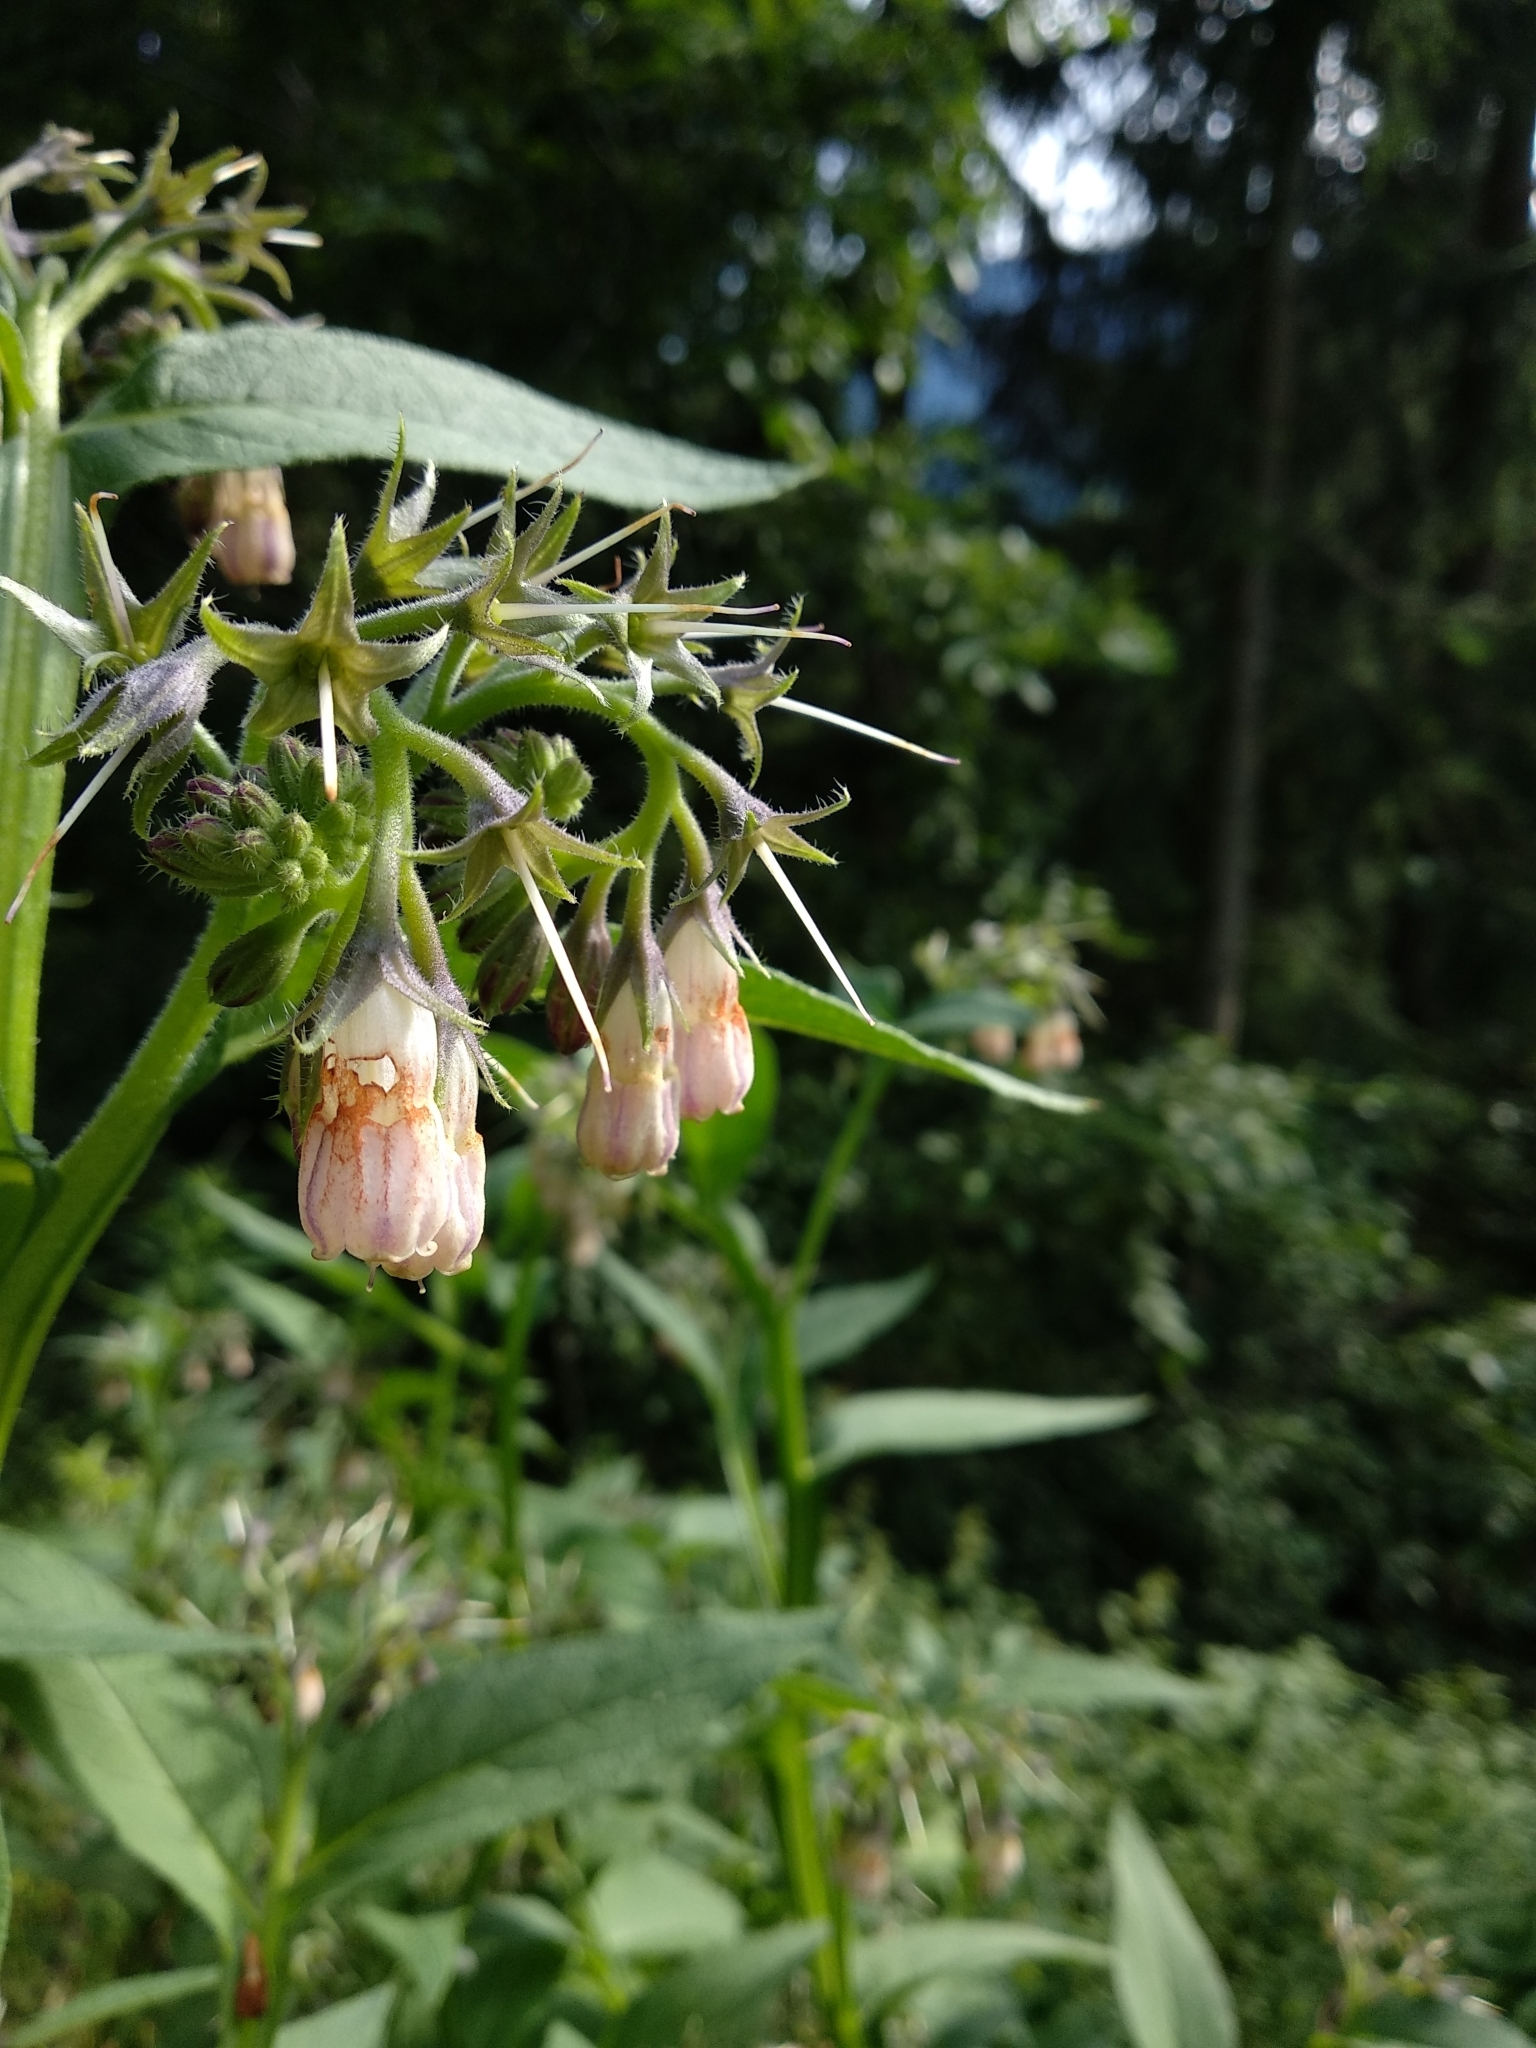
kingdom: Plantae
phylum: Tracheophyta
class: Magnoliopsida
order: Boraginales
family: Boraginaceae
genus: Symphytum
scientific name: Symphytum officinale
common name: Common comfrey
